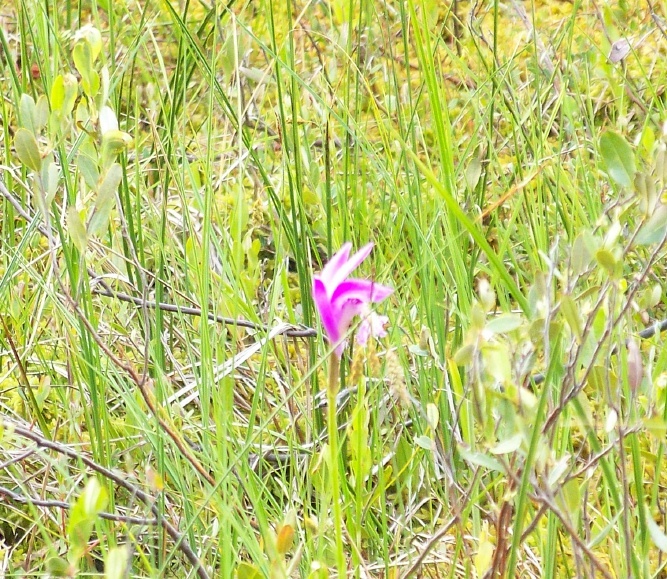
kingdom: Plantae
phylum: Tracheophyta
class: Liliopsida
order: Asparagales
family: Orchidaceae
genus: Arethusa
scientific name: Arethusa bulbosa
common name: Arethusa
